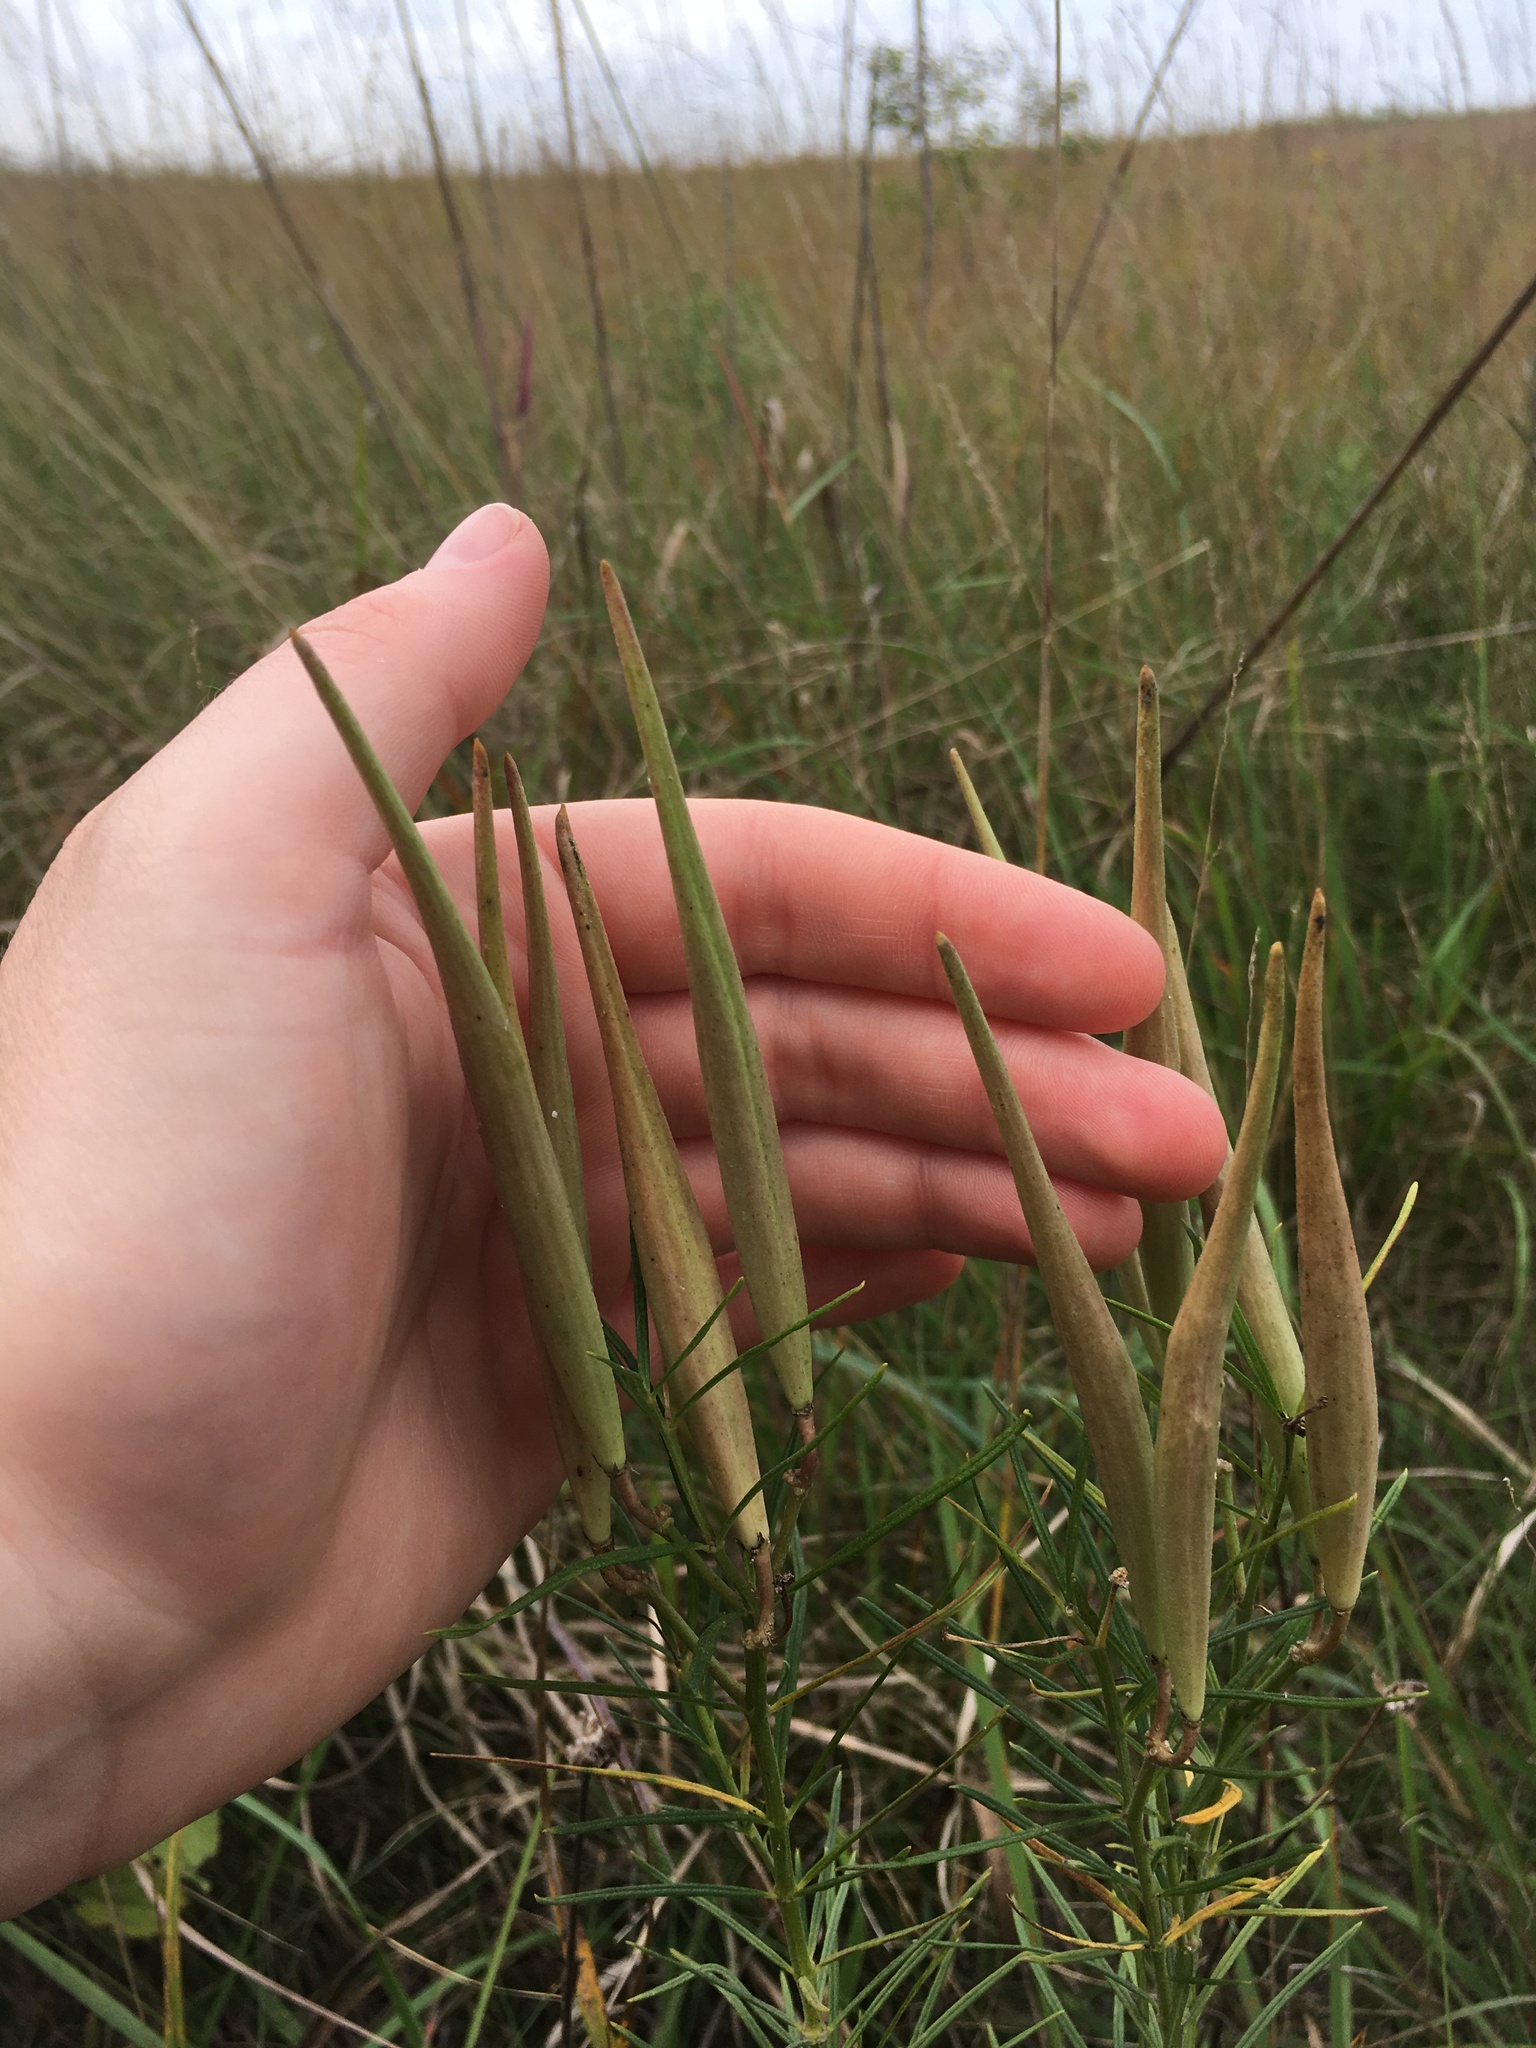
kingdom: Plantae
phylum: Tracheophyta
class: Magnoliopsida
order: Gentianales
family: Apocynaceae
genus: Asclepias
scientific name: Asclepias verticillata
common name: Eastern whorled milkweed
